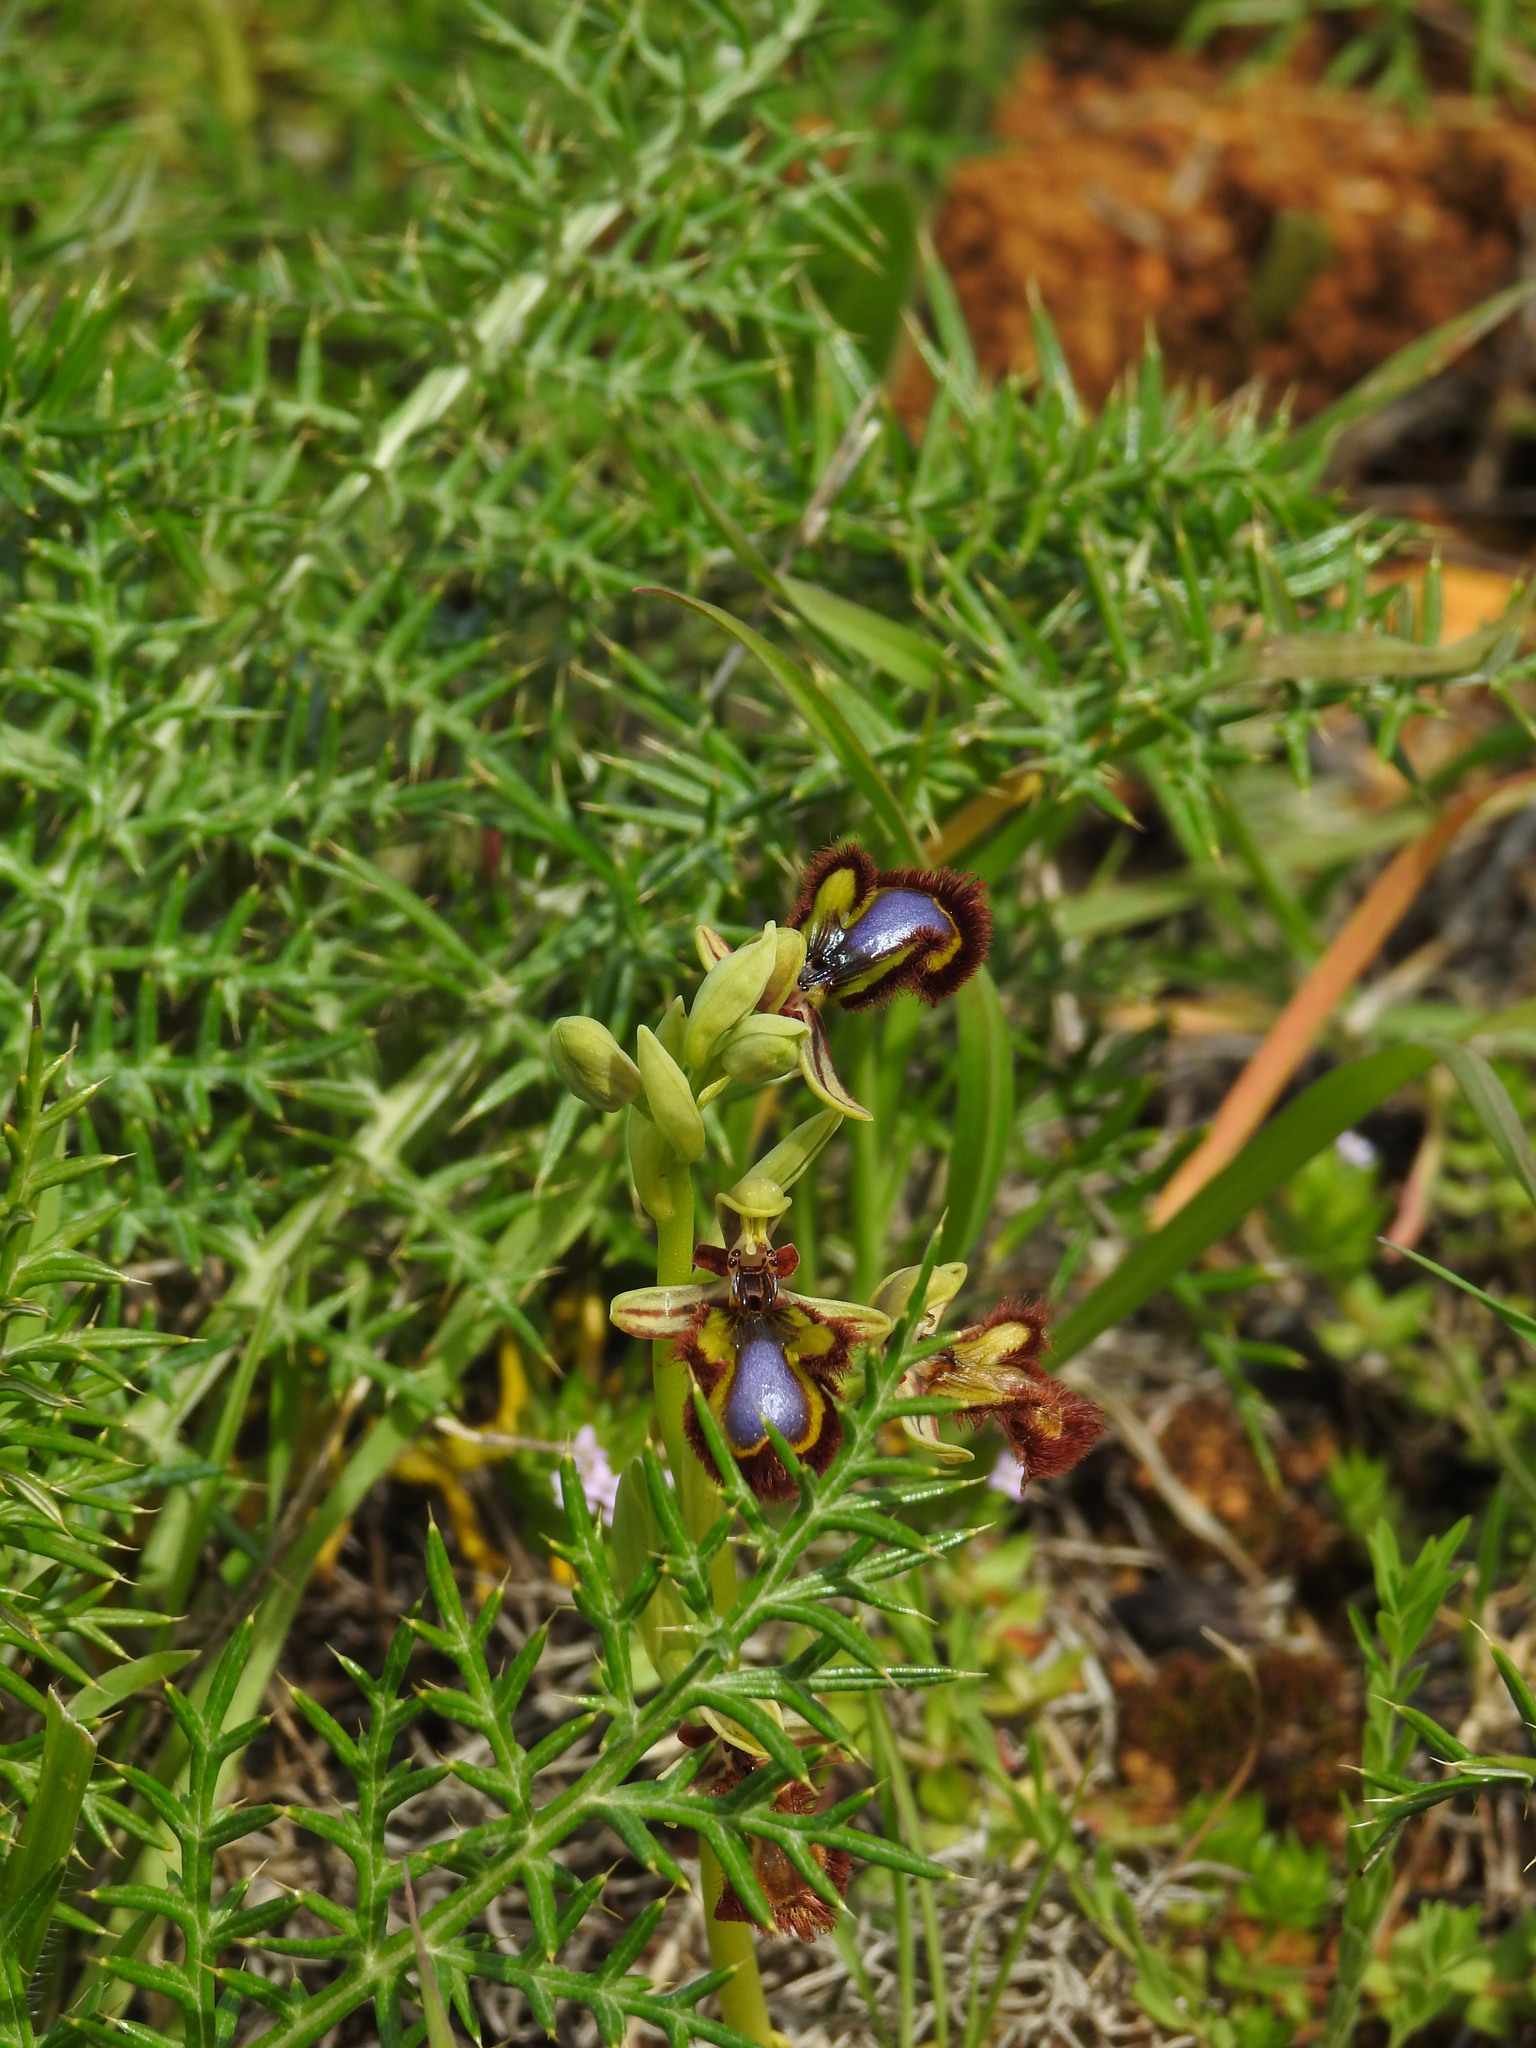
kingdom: Plantae
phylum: Tracheophyta
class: Liliopsida
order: Asparagales
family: Orchidaceae
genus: Ophrys
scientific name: Ophrys speculum
